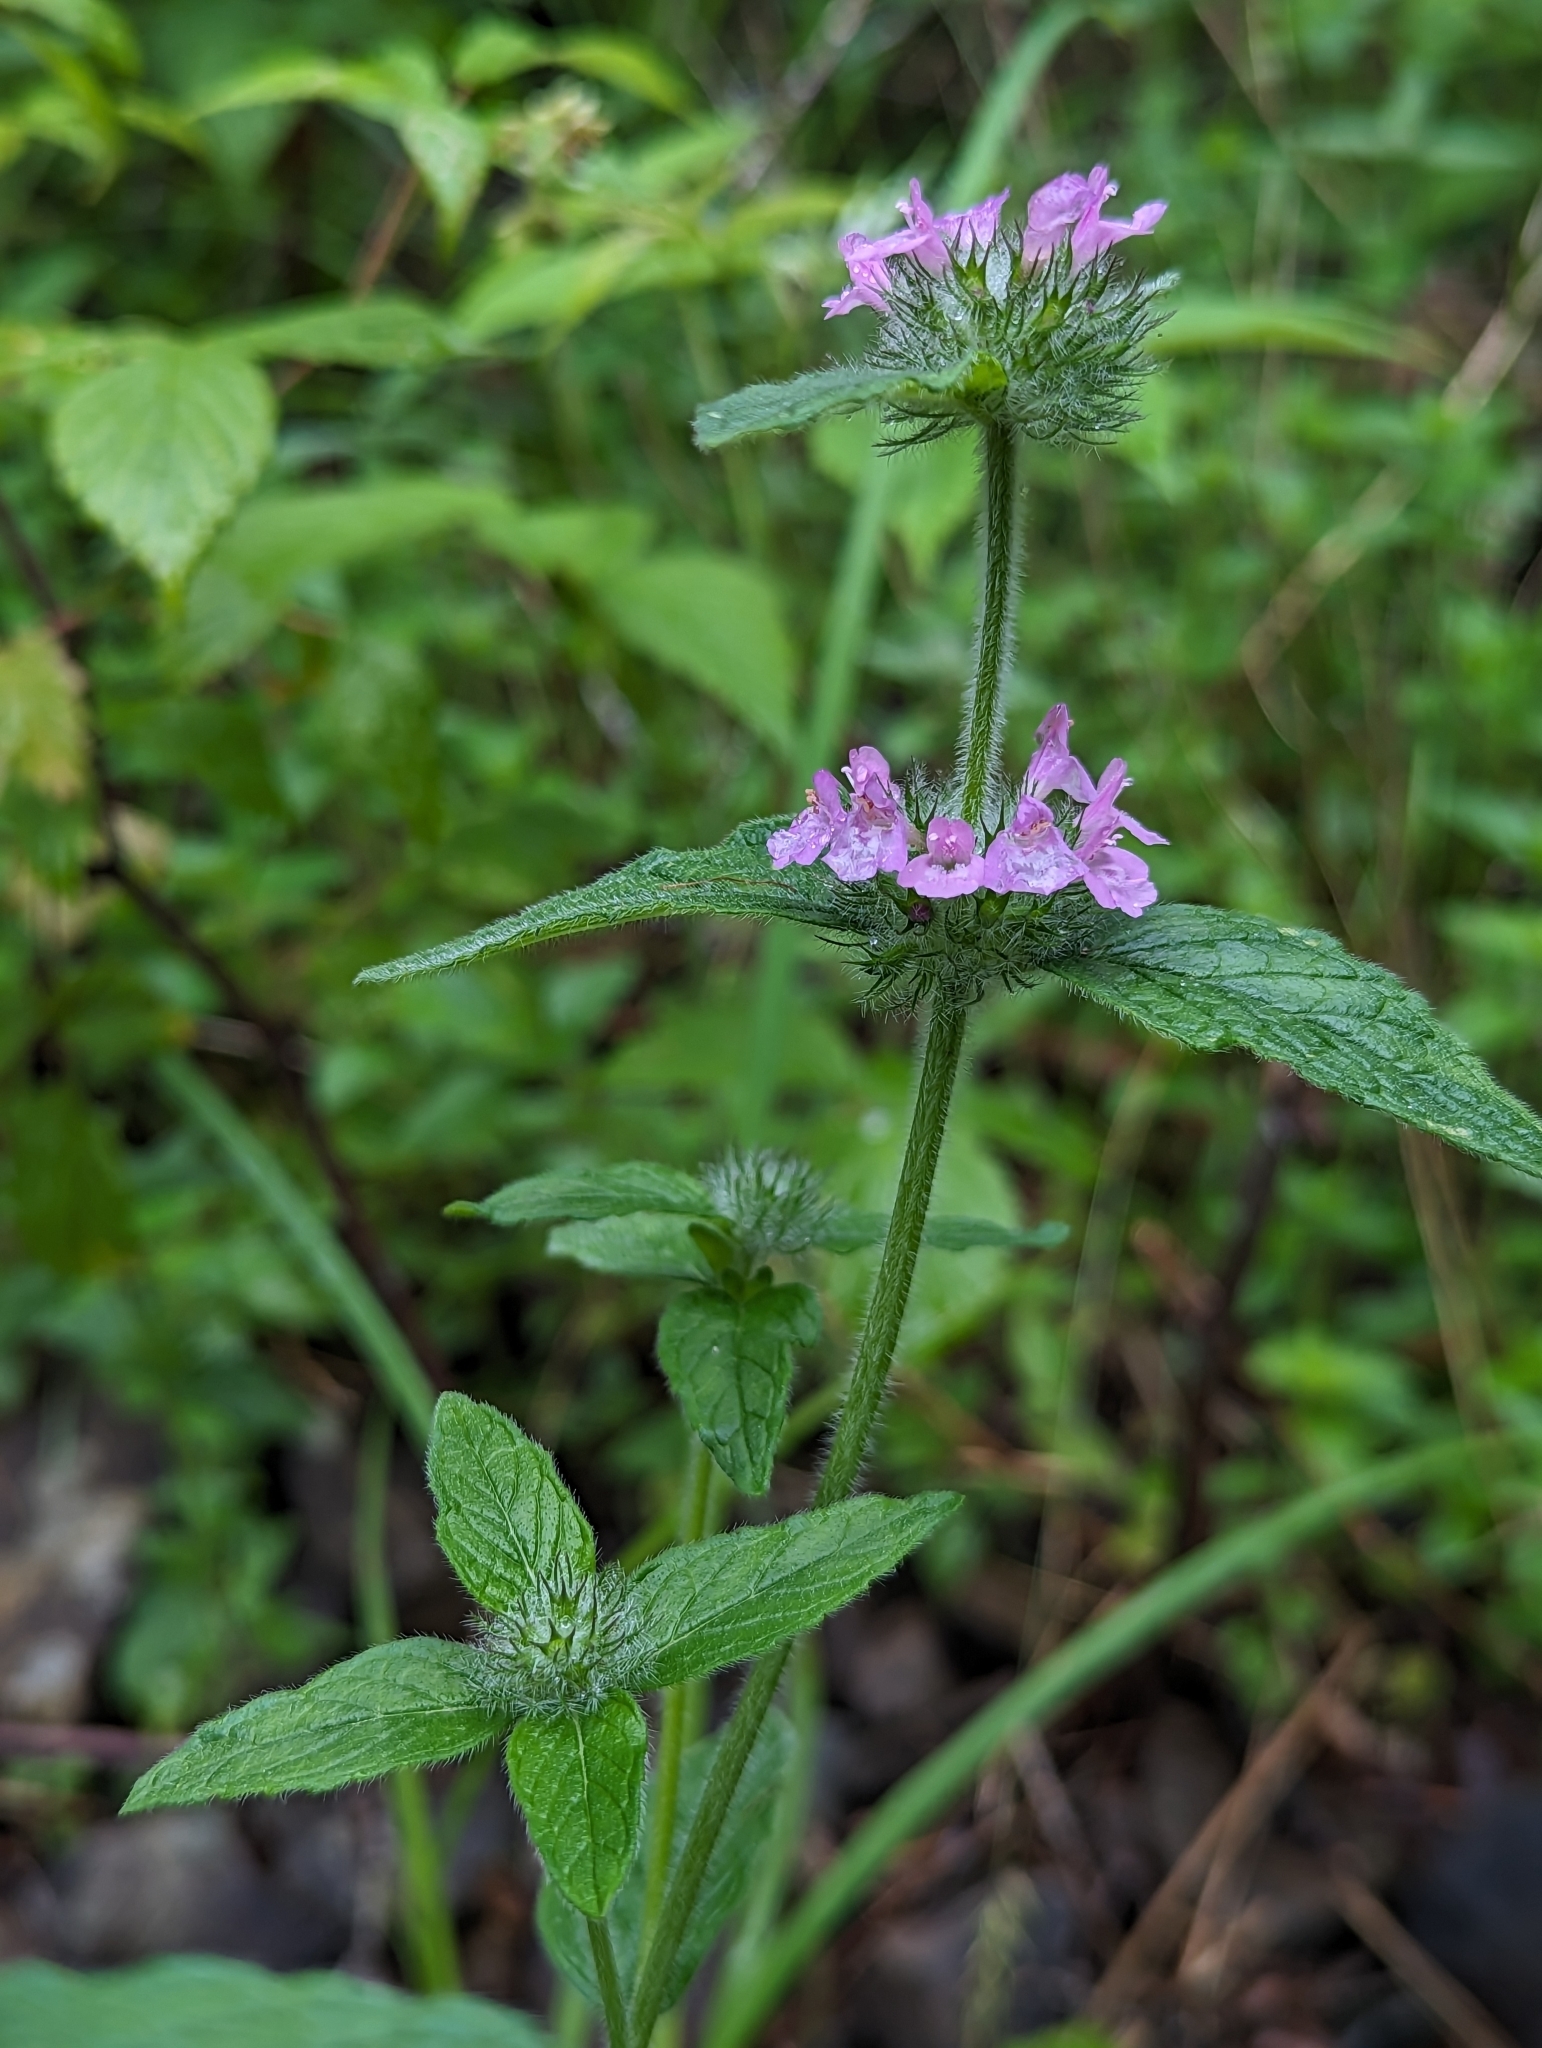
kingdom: Plantae
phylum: Tracheophyta
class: Magnoliopsida
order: Lamiales
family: Lamiaceae
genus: Clinopodium
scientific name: Clinopodium vulgare
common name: Wild basil
